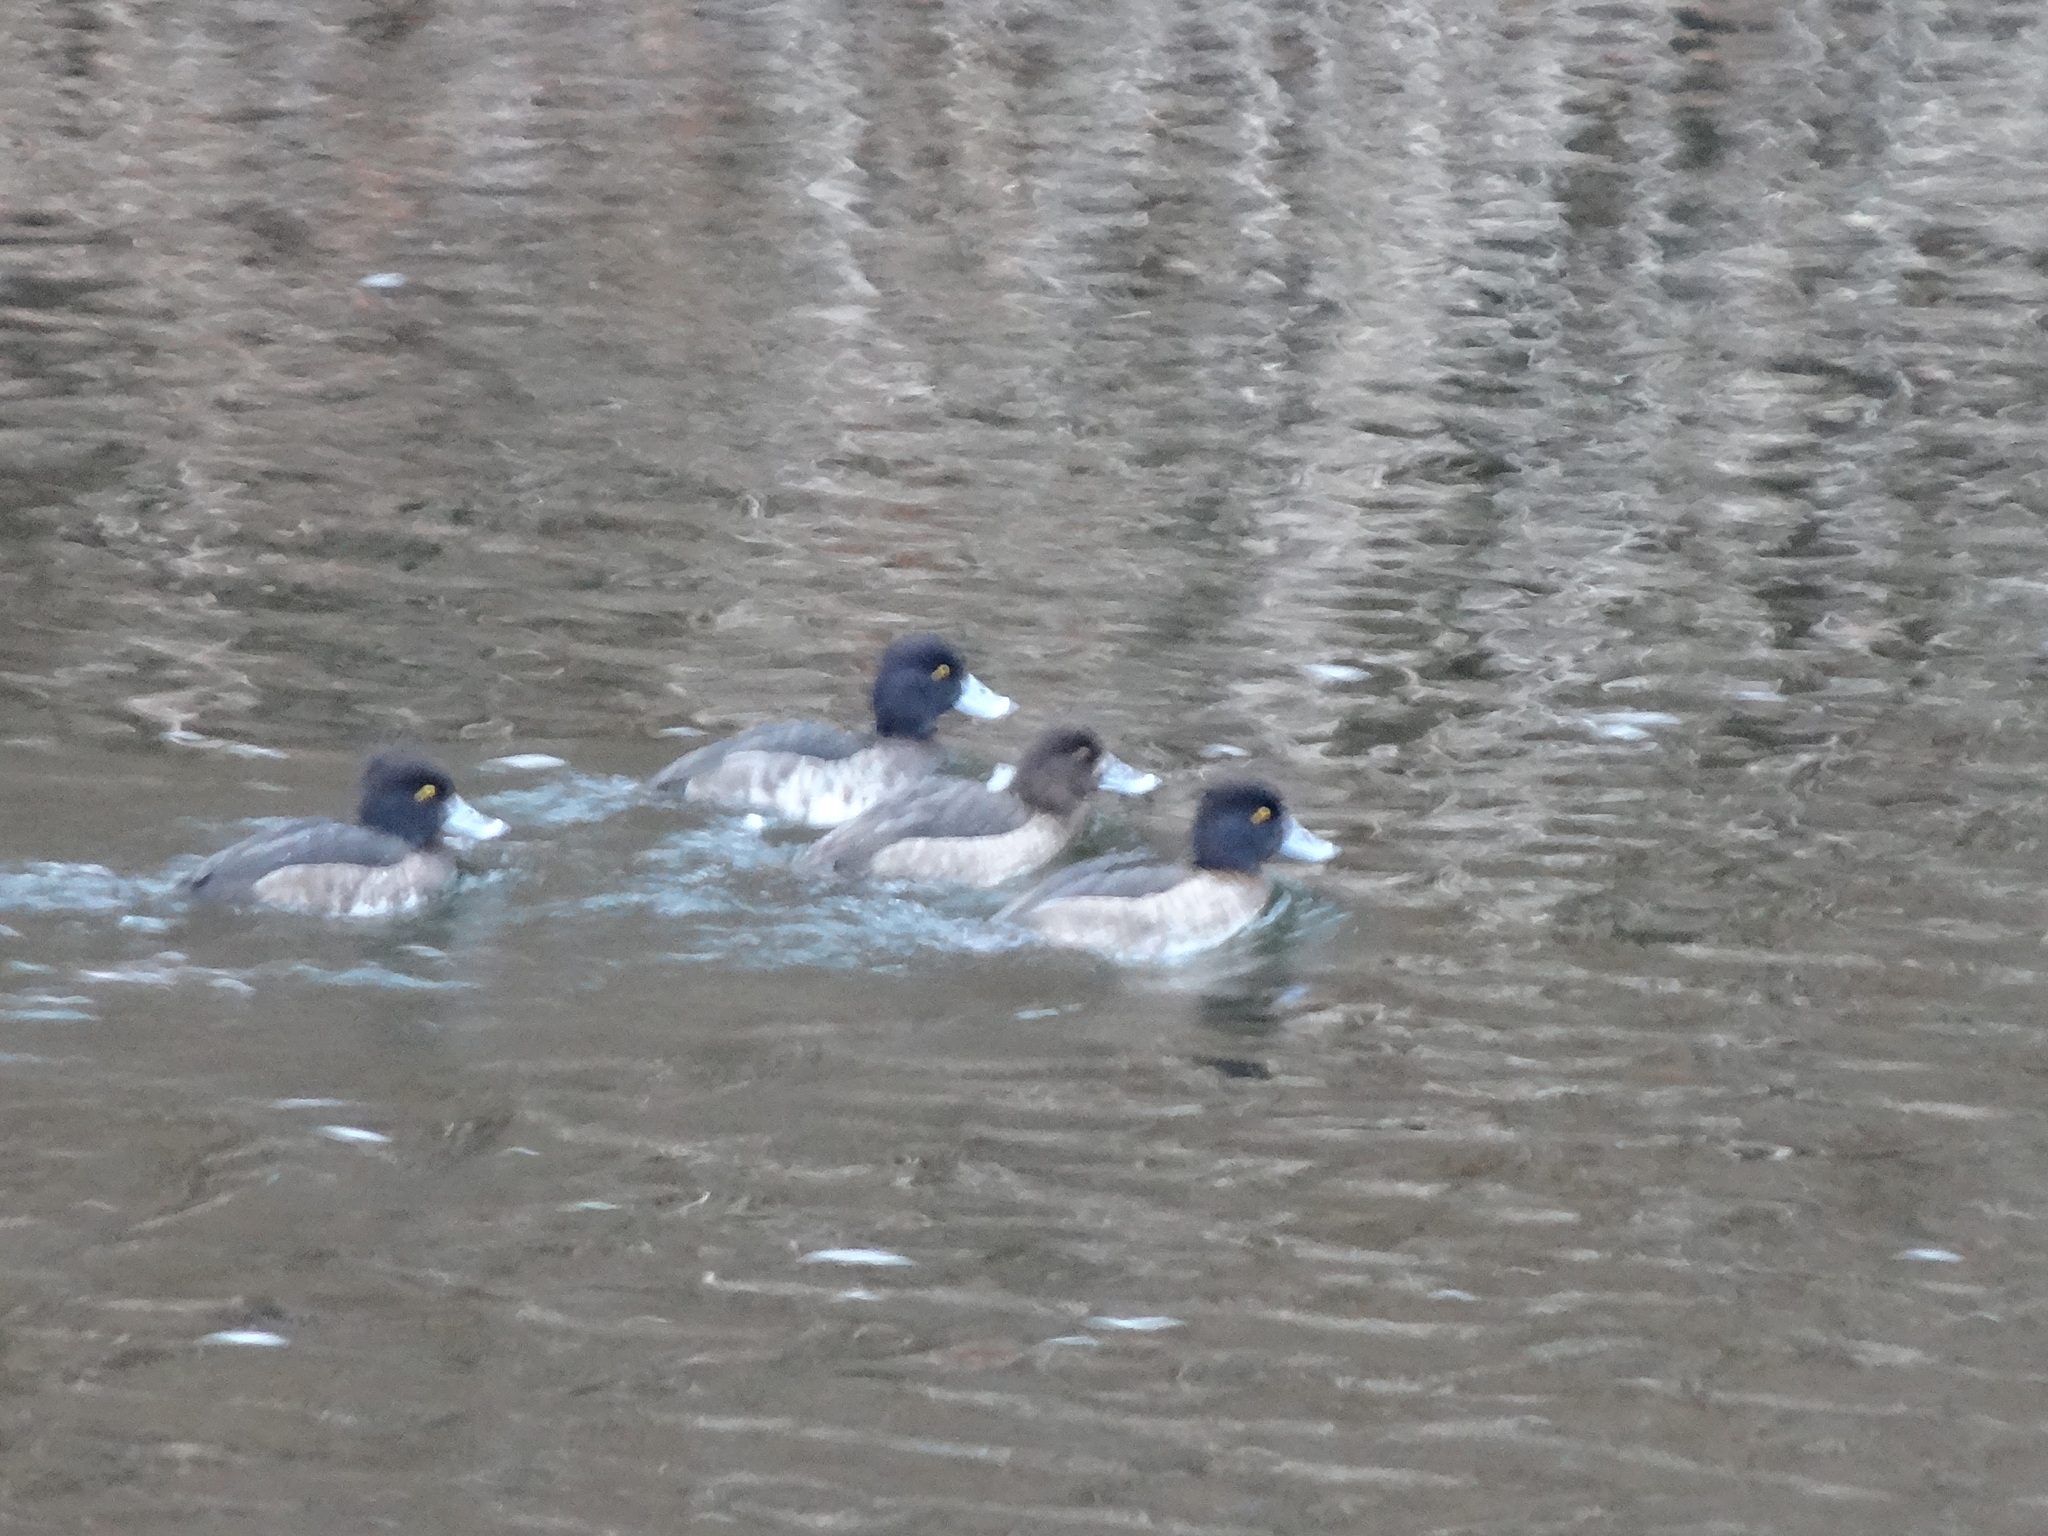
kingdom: Animalia
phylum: Chordata
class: Aves
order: Anseriformes
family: Anatidae
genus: Aythya
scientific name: Aythya fuligula
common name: Tufted duck
